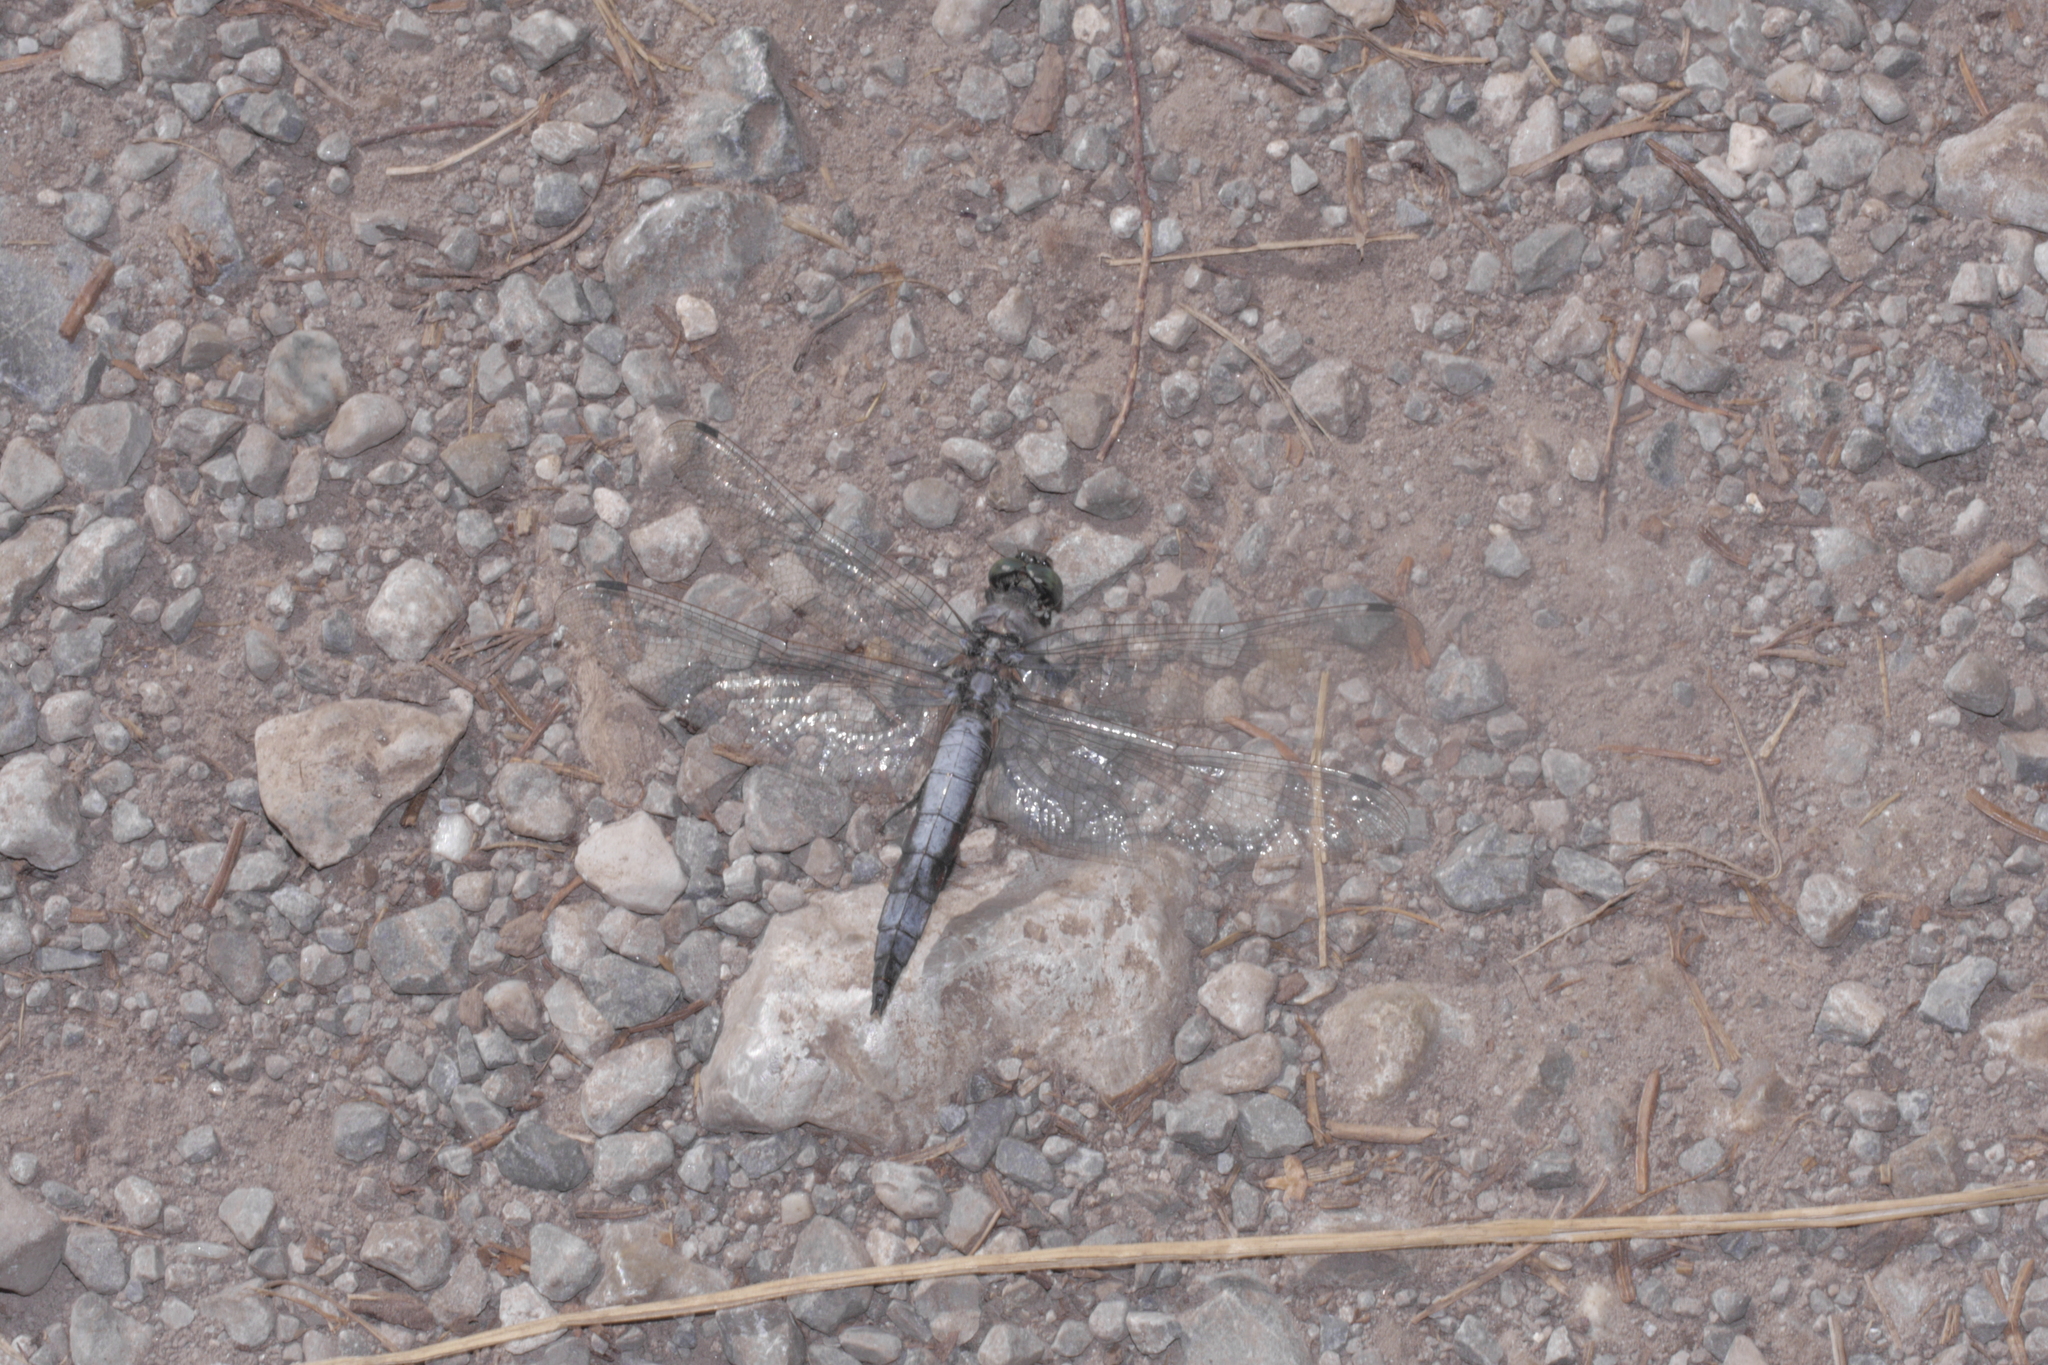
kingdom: Animalia
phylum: Arthropoda
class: Insecta
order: Odonata
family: Libellulidae
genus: Orthetrum
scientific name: Orthetrum cancellatum
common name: Black-tailed skimmer
